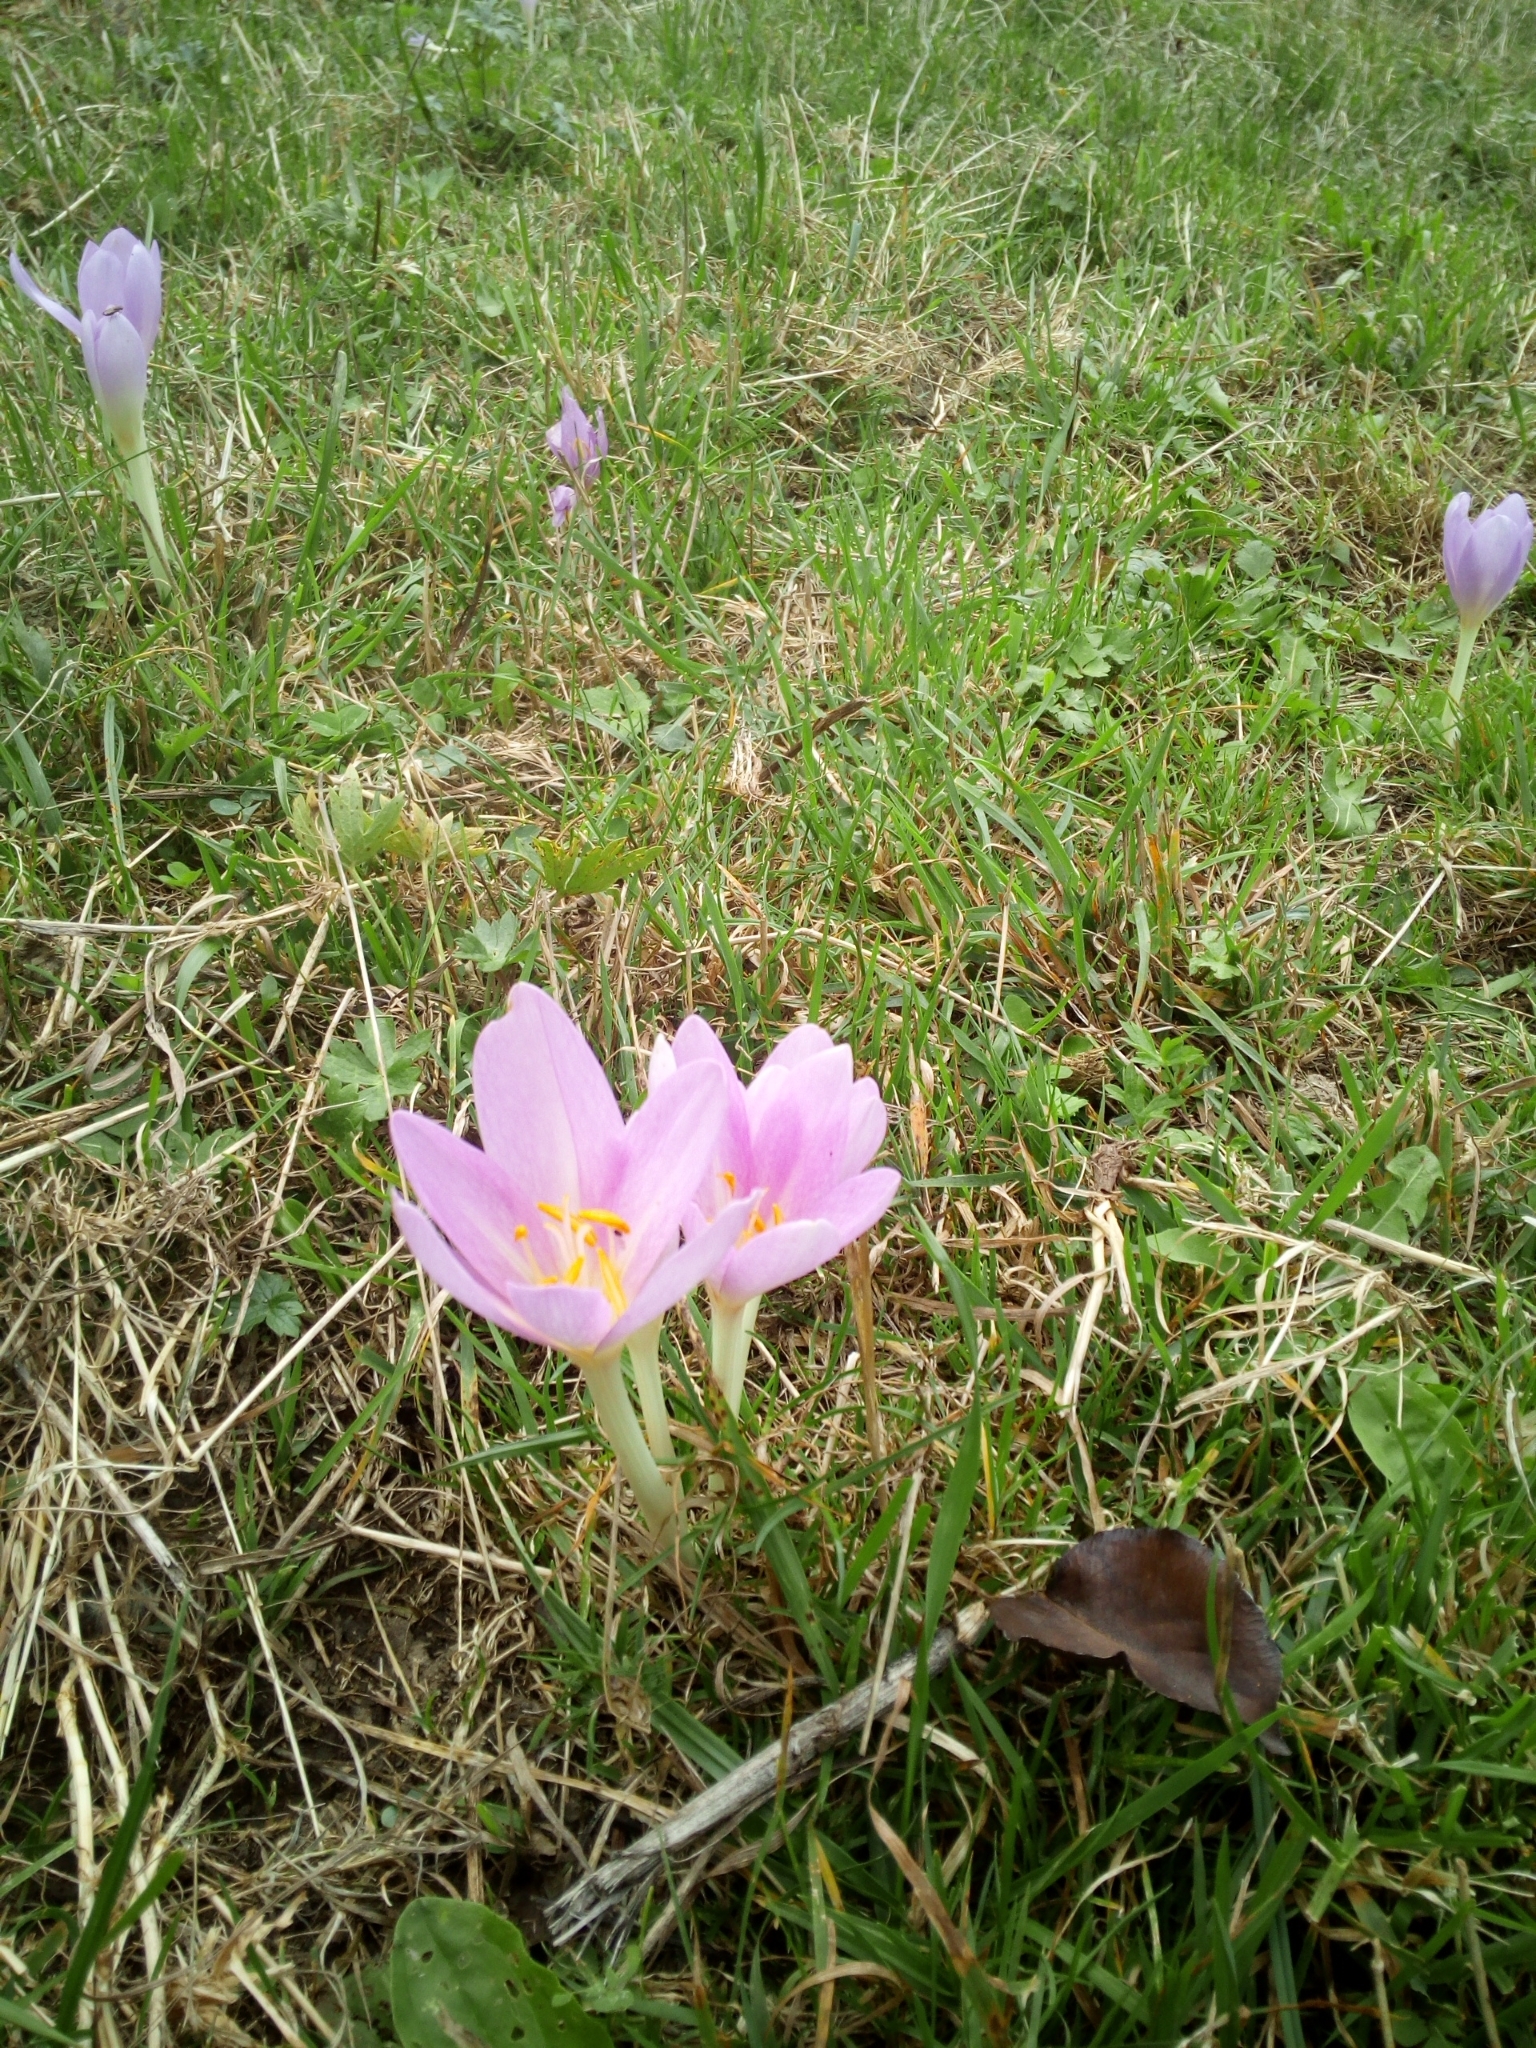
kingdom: Plantae
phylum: Tracheophyta
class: Liliopsida
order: Liliales
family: Colchicaceae
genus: Colchicum
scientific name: Colchicum autumnale
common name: Autumn crocus
